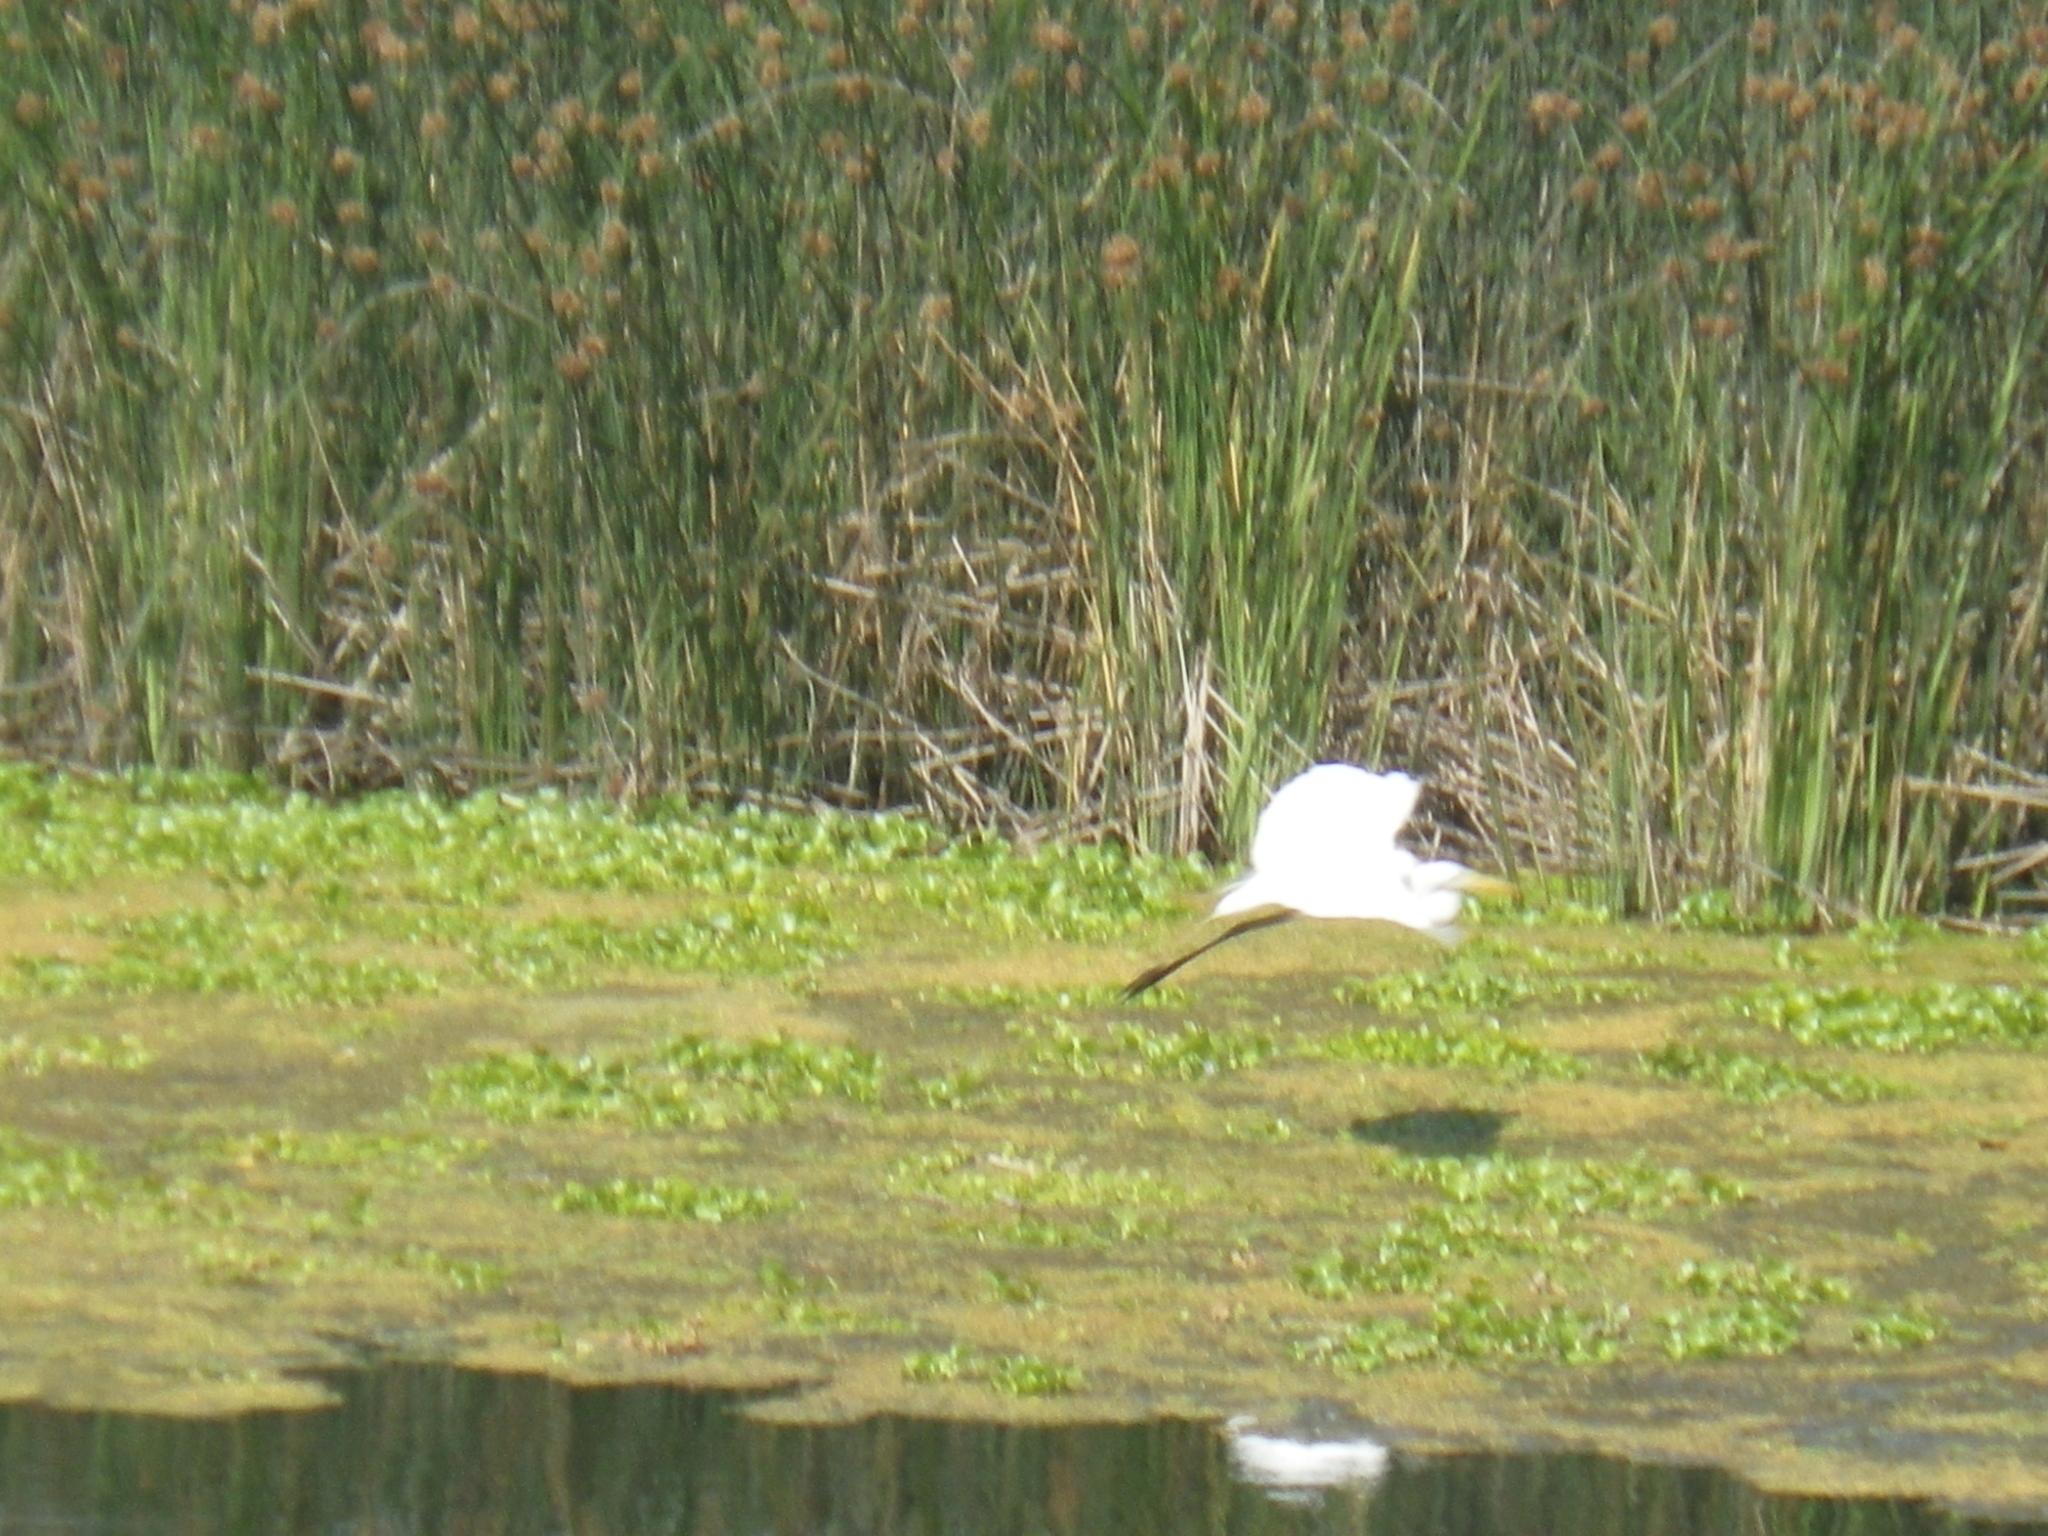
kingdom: Animalia
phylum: Chordata
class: Aves
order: Pelecaniformes
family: Ardeidae
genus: Ardea
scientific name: Ardea alba
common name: Great egret
